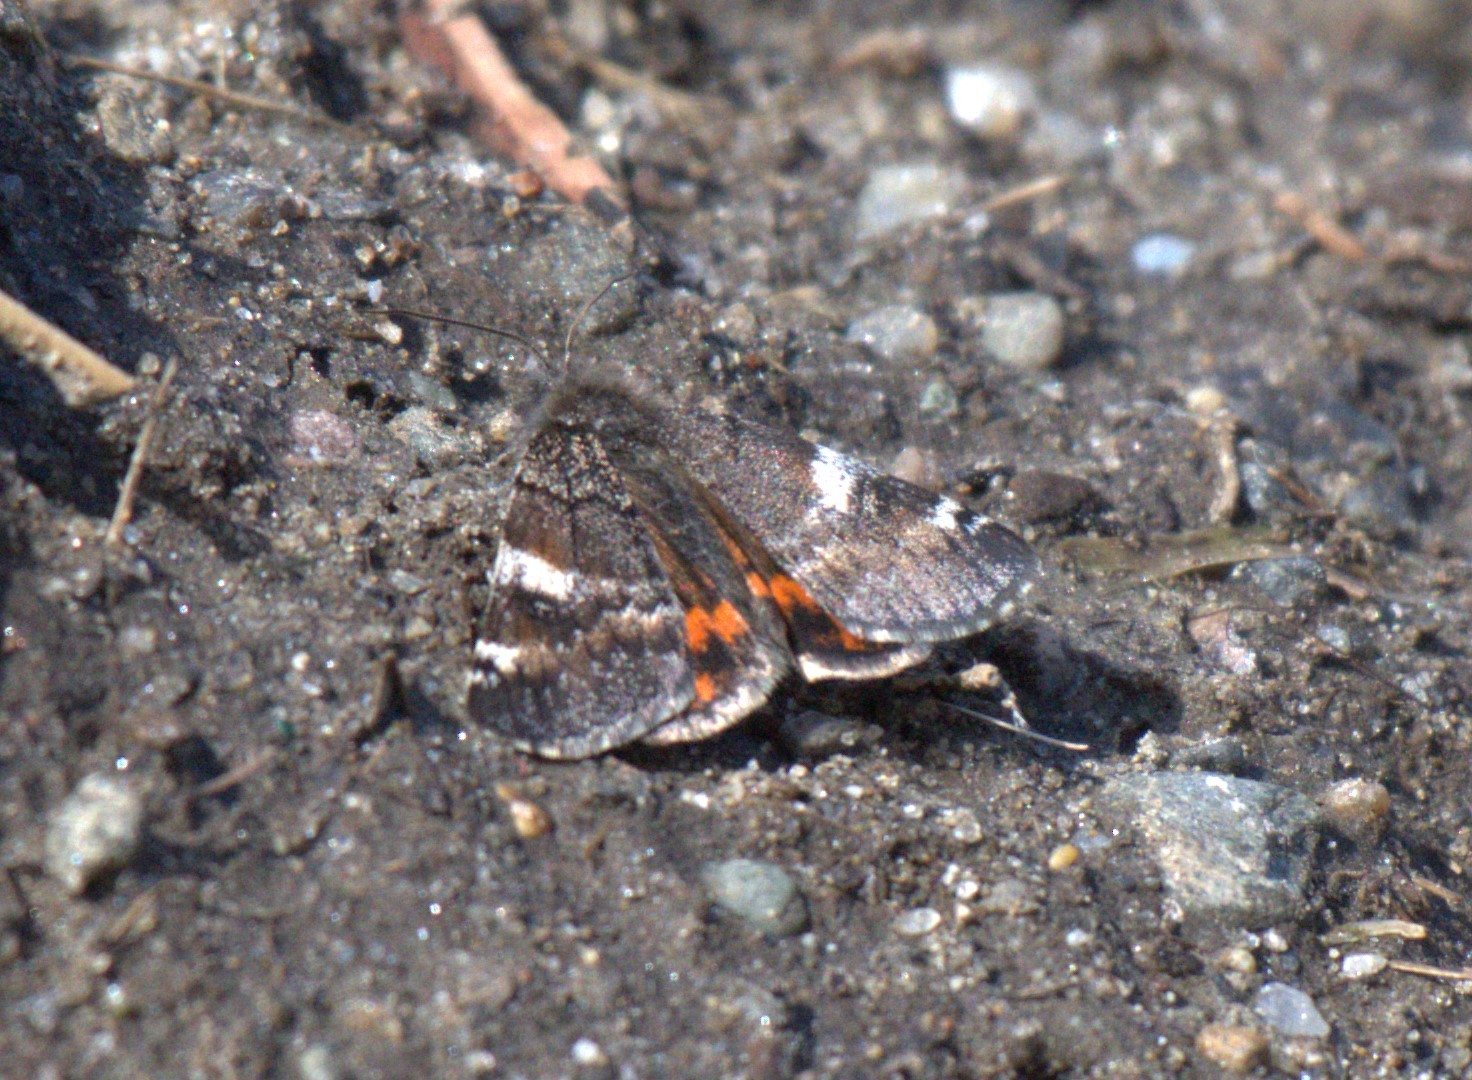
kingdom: Animalia
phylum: Arthropoda
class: Insecta
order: Lepidoptera
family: Geometridae
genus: Archiearis
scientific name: Archiearis infans
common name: First born geometer
